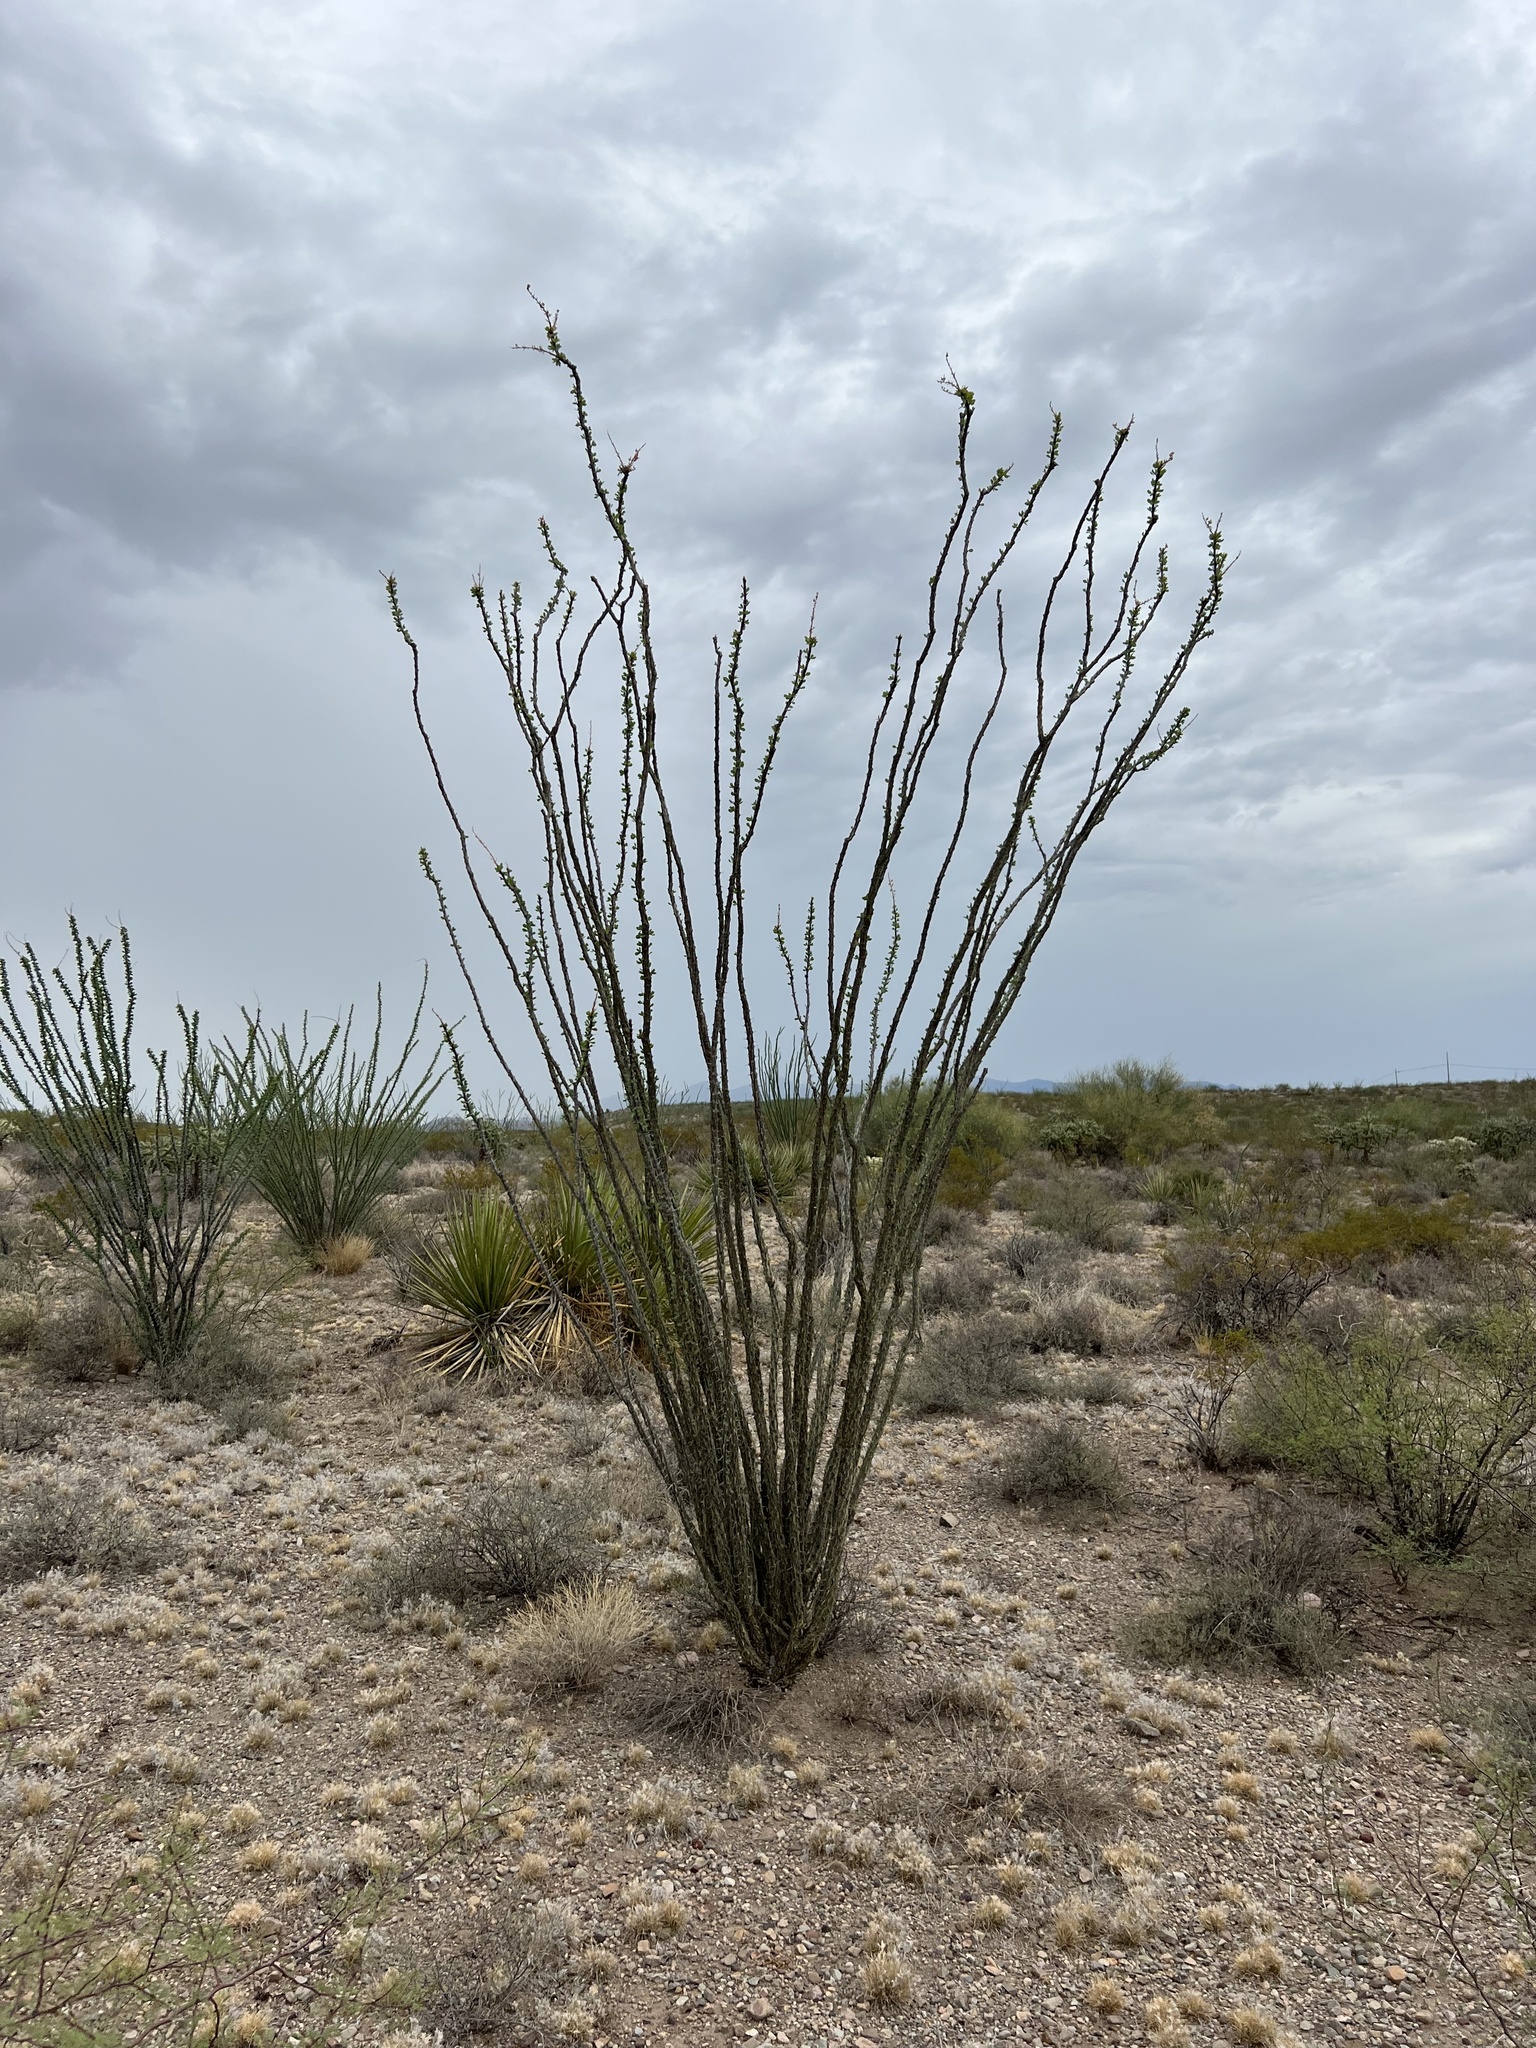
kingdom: Plantae
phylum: Tracheophyta
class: Magnoliopsida
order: Ericales
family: Fouquieriaceae
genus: Fouquieria
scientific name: Fouquieria splendens
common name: Vine-cactus
